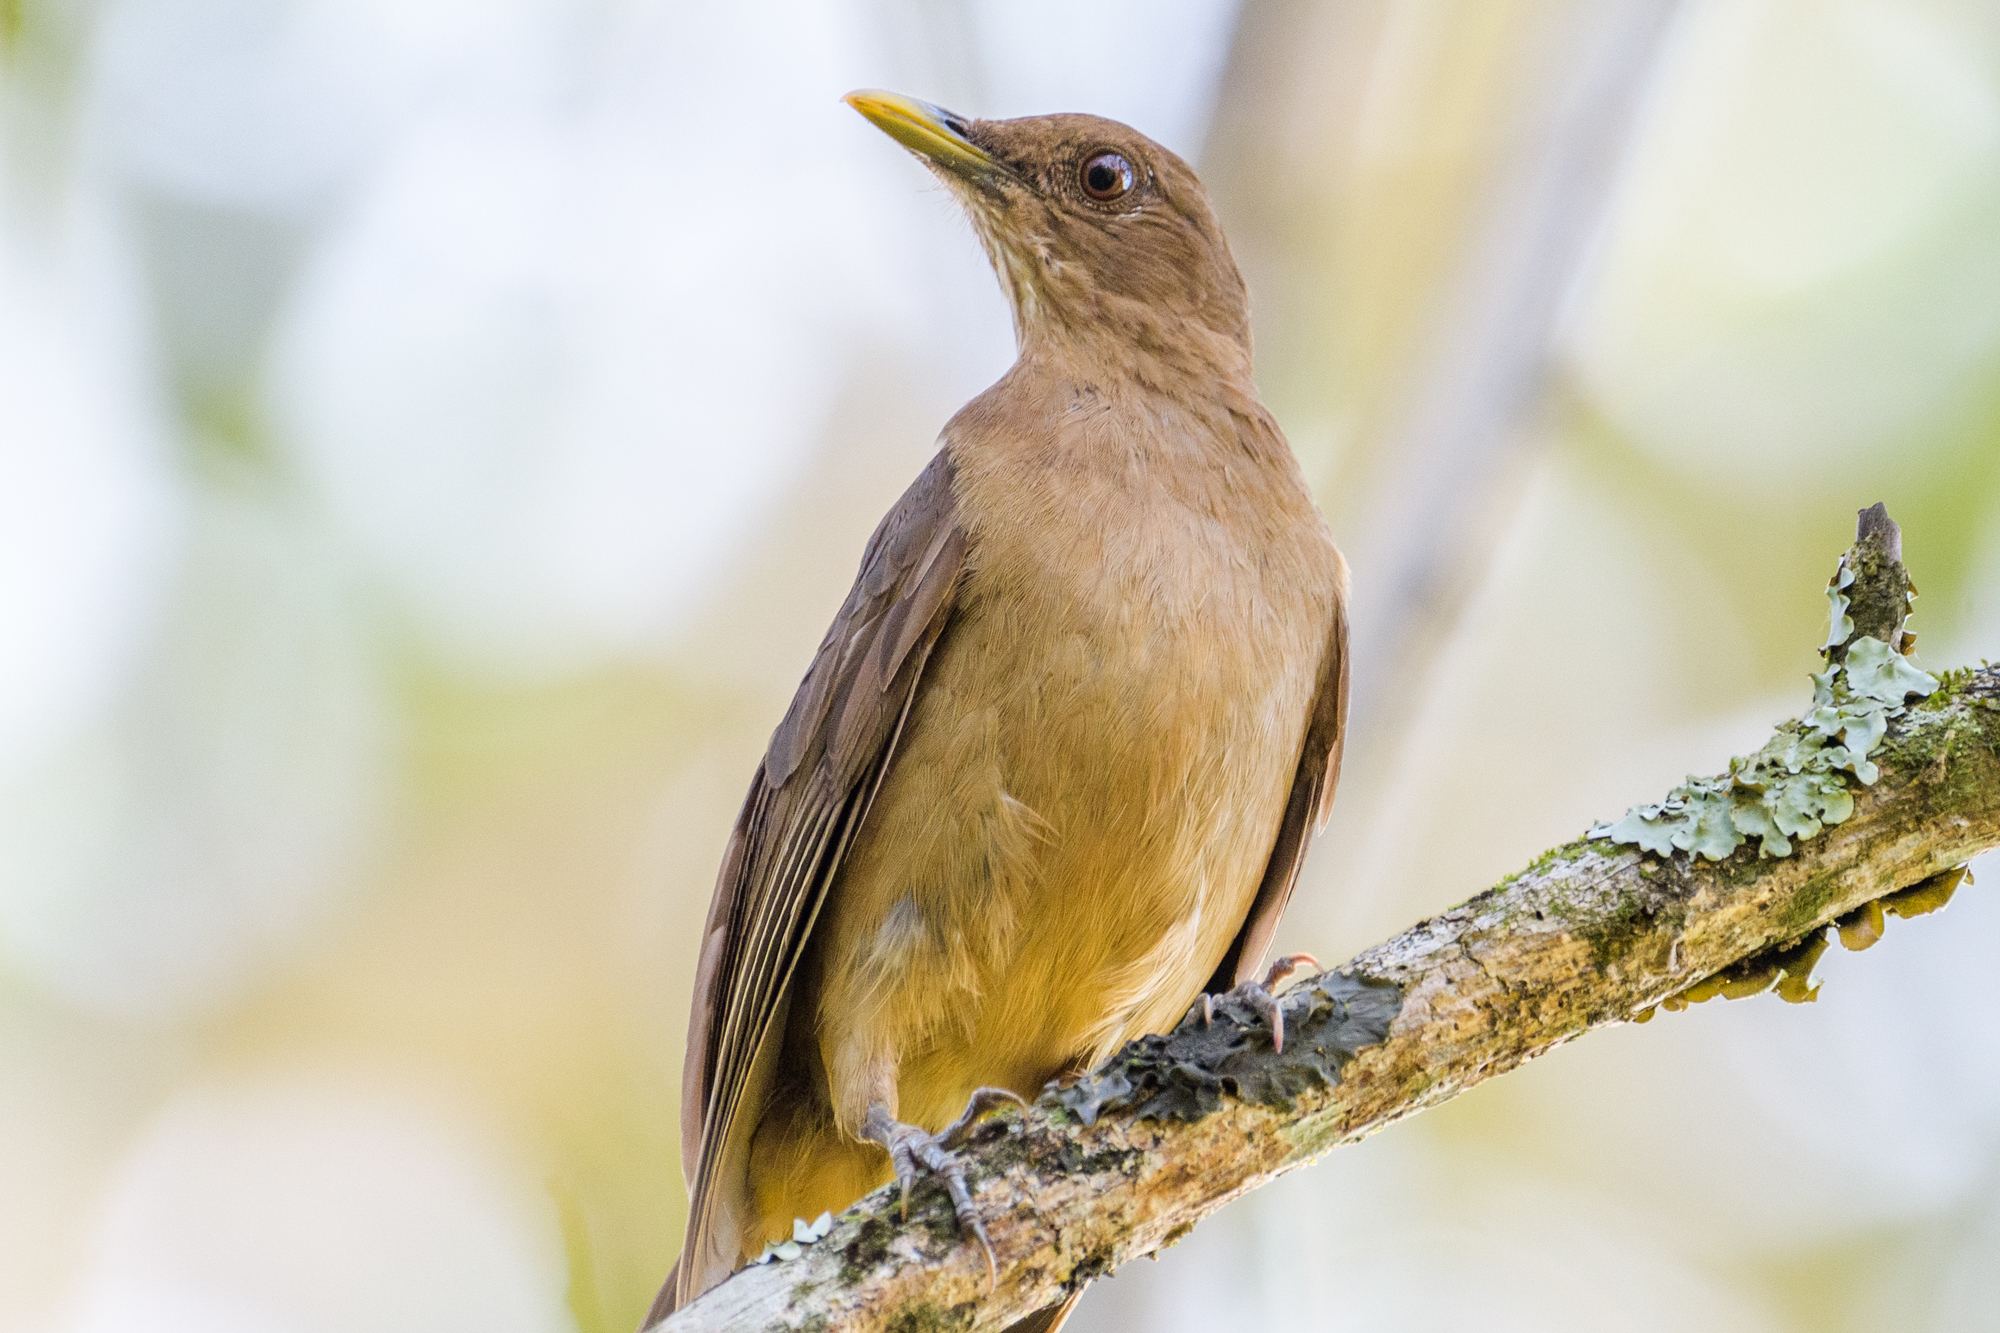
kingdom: Animalia
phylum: Chordata
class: Aves
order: Passeriformes
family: Turdidae
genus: Turdus
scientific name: Turdus grayi
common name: Clay-colored thrush
